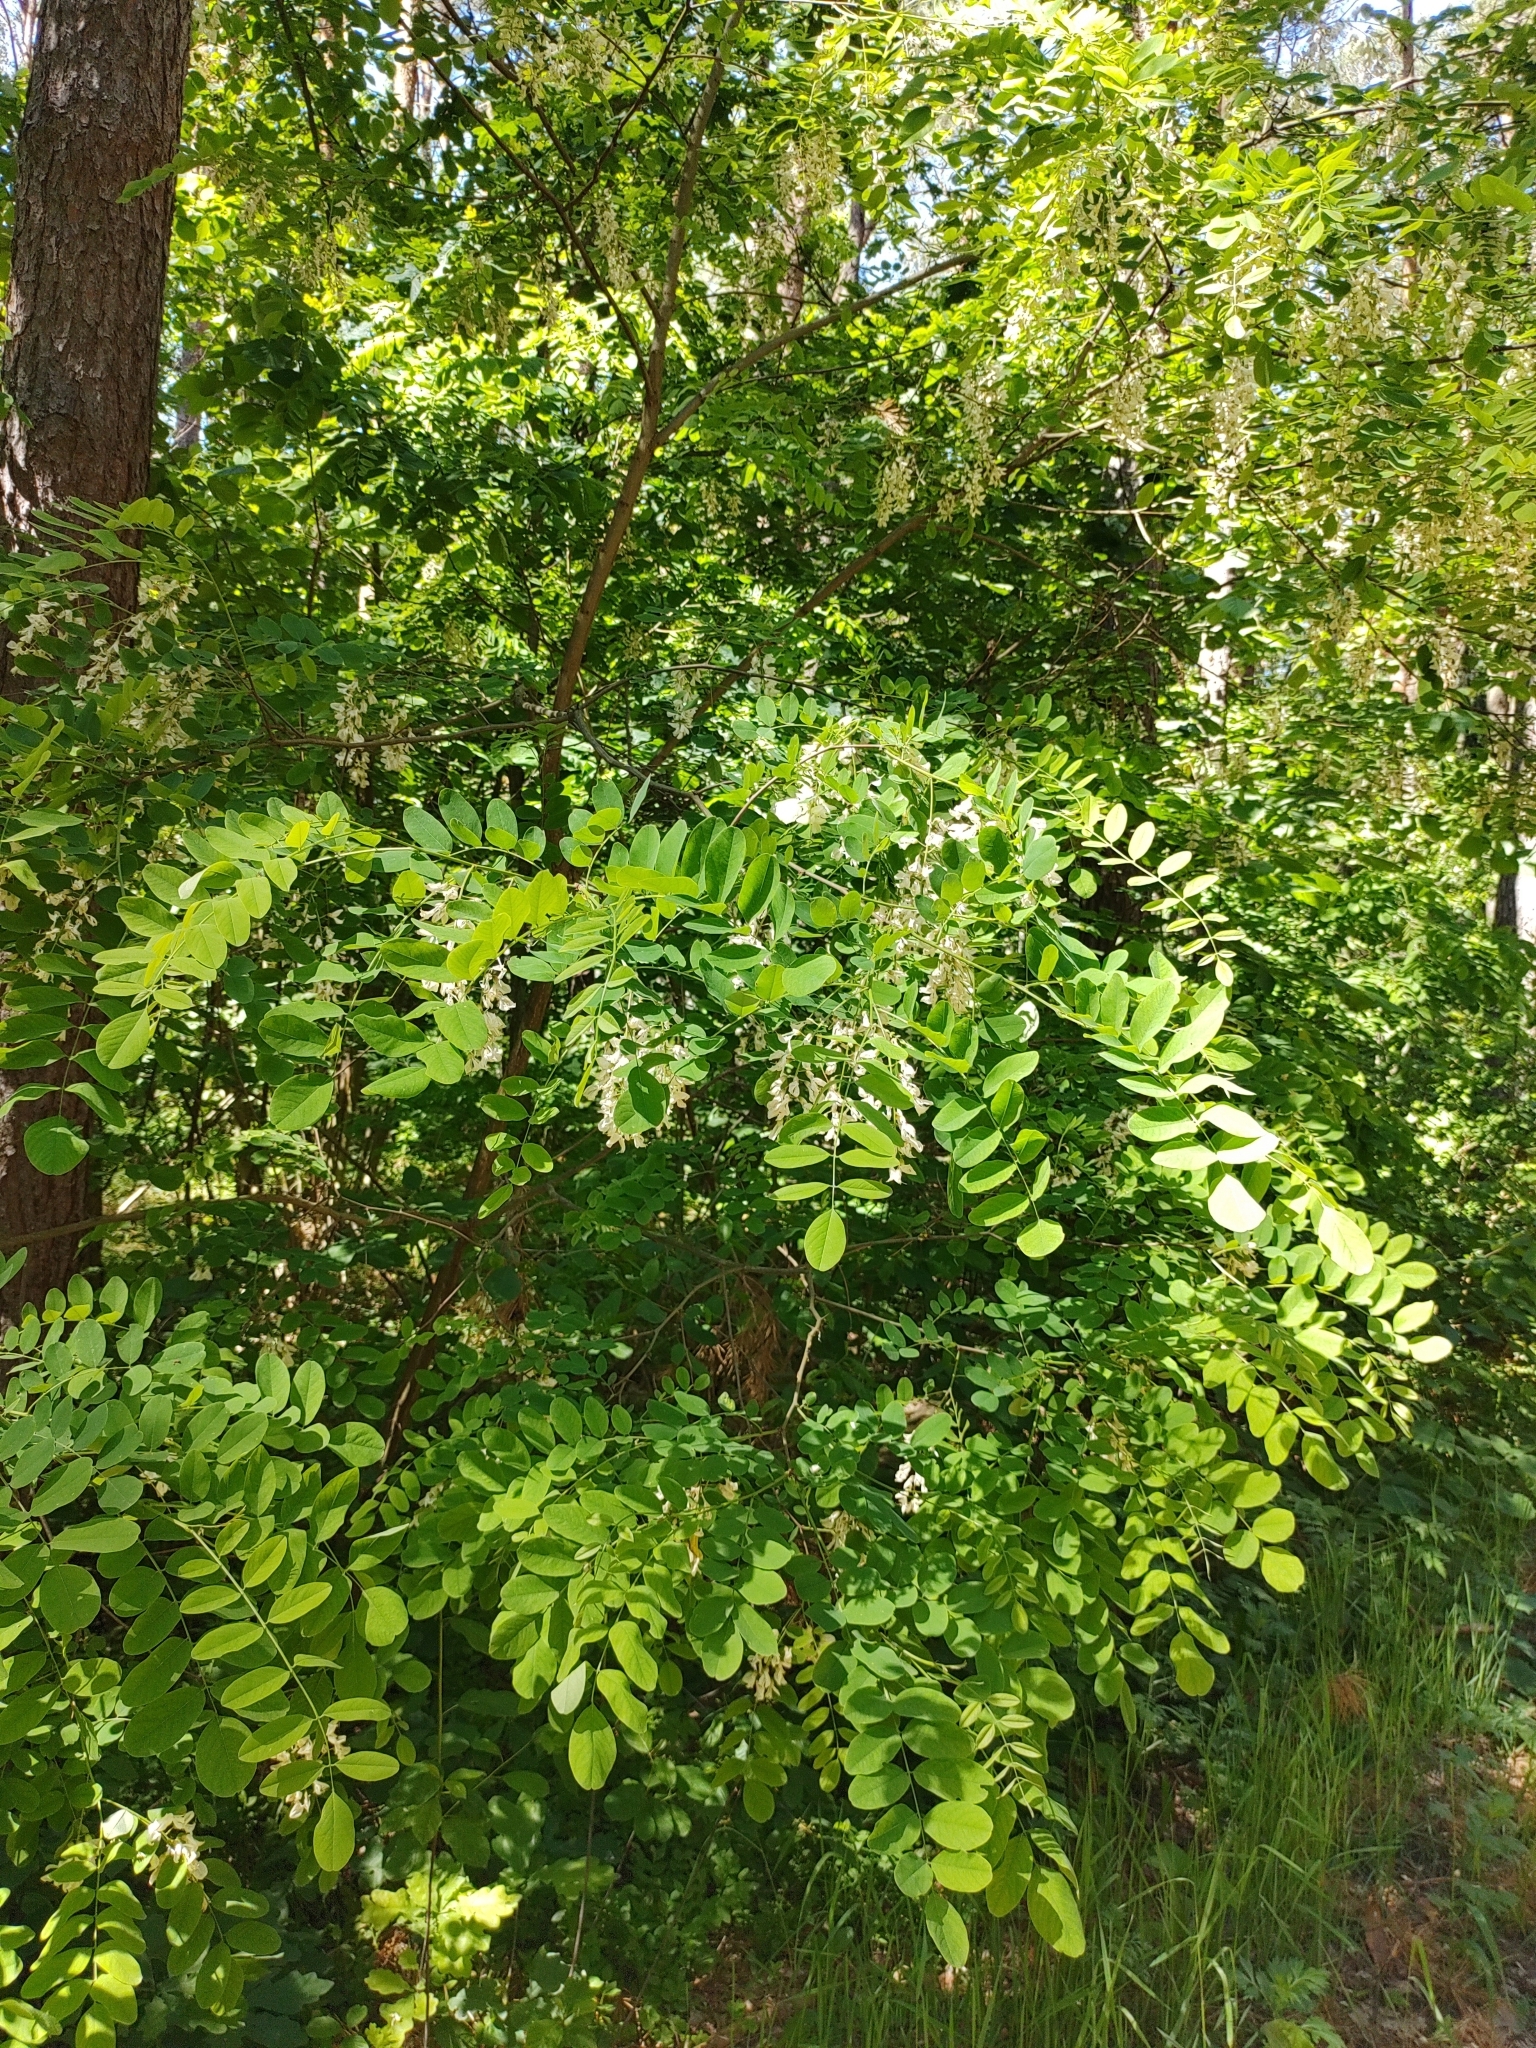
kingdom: Plantae
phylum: Tracheophyta
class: Magnoliopsida
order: Fabales
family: Fabaceae
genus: Robinia
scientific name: Robinia pseudoacacia
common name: Black locust
